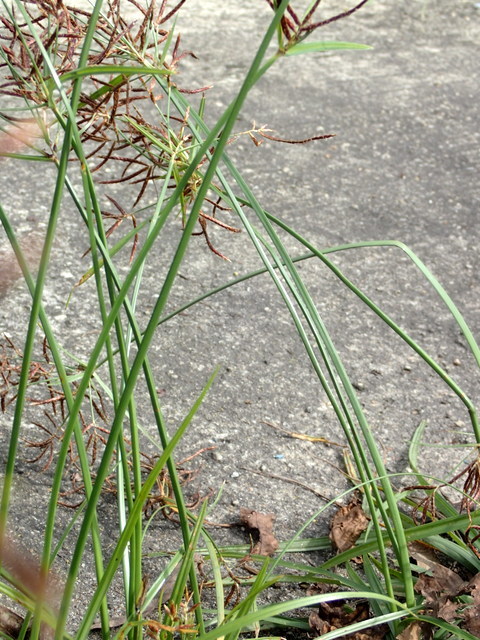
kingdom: Plantae
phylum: Tracheophyta
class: Liliopsida
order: Poales
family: Cyperaceae
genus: Cyperus
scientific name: Cyperus rotundus
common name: Nutgrass
